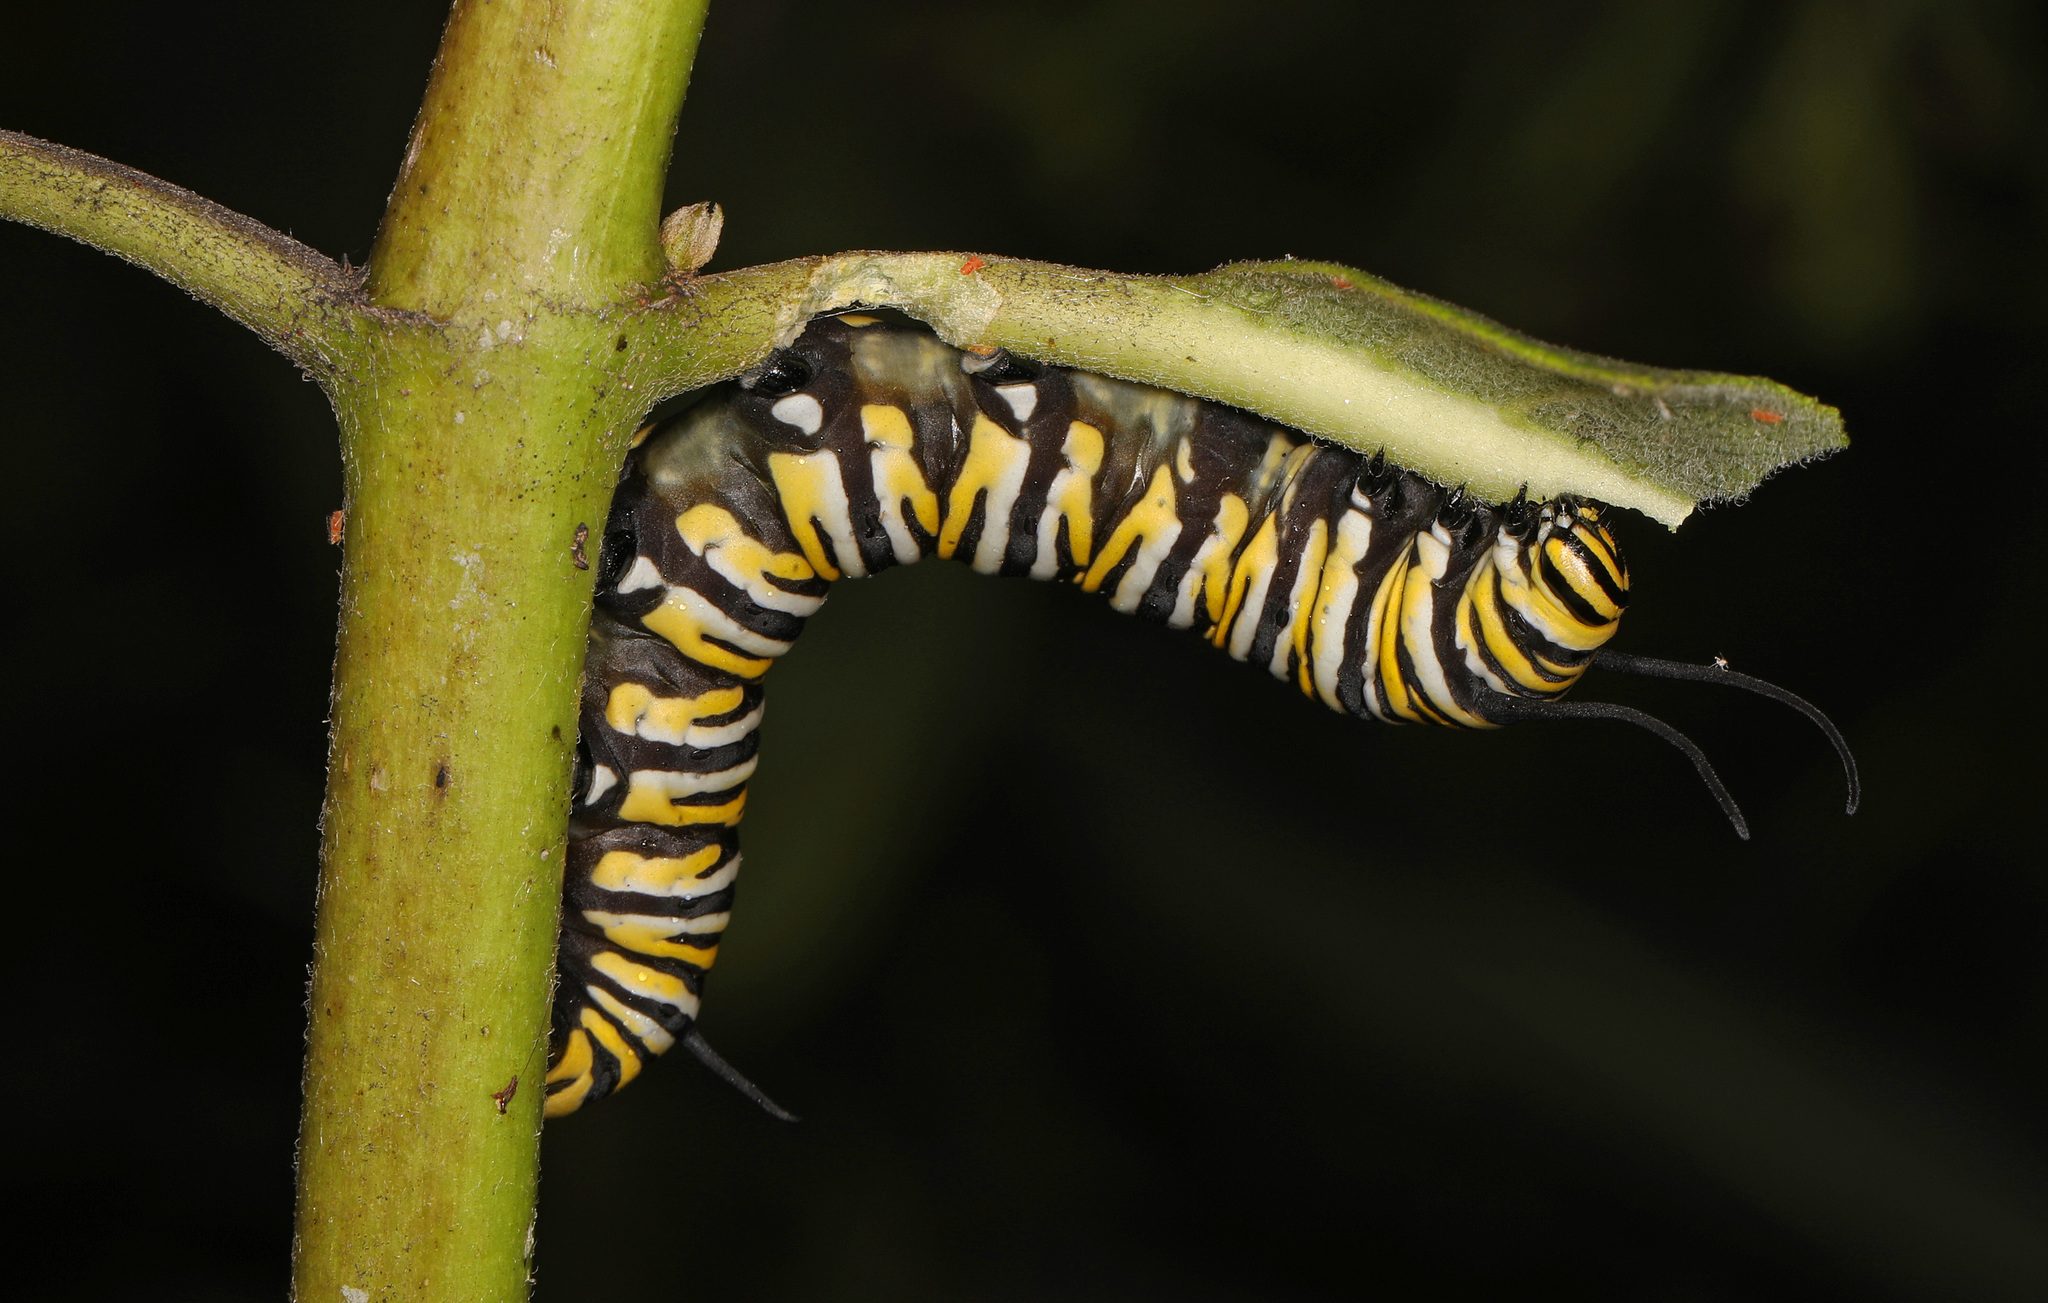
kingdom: Animalia
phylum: Arthropoda
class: Insecta
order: Lepidoptera
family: Nymphalidae
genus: Danaus
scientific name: Danaus plexippus
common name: Monarch
